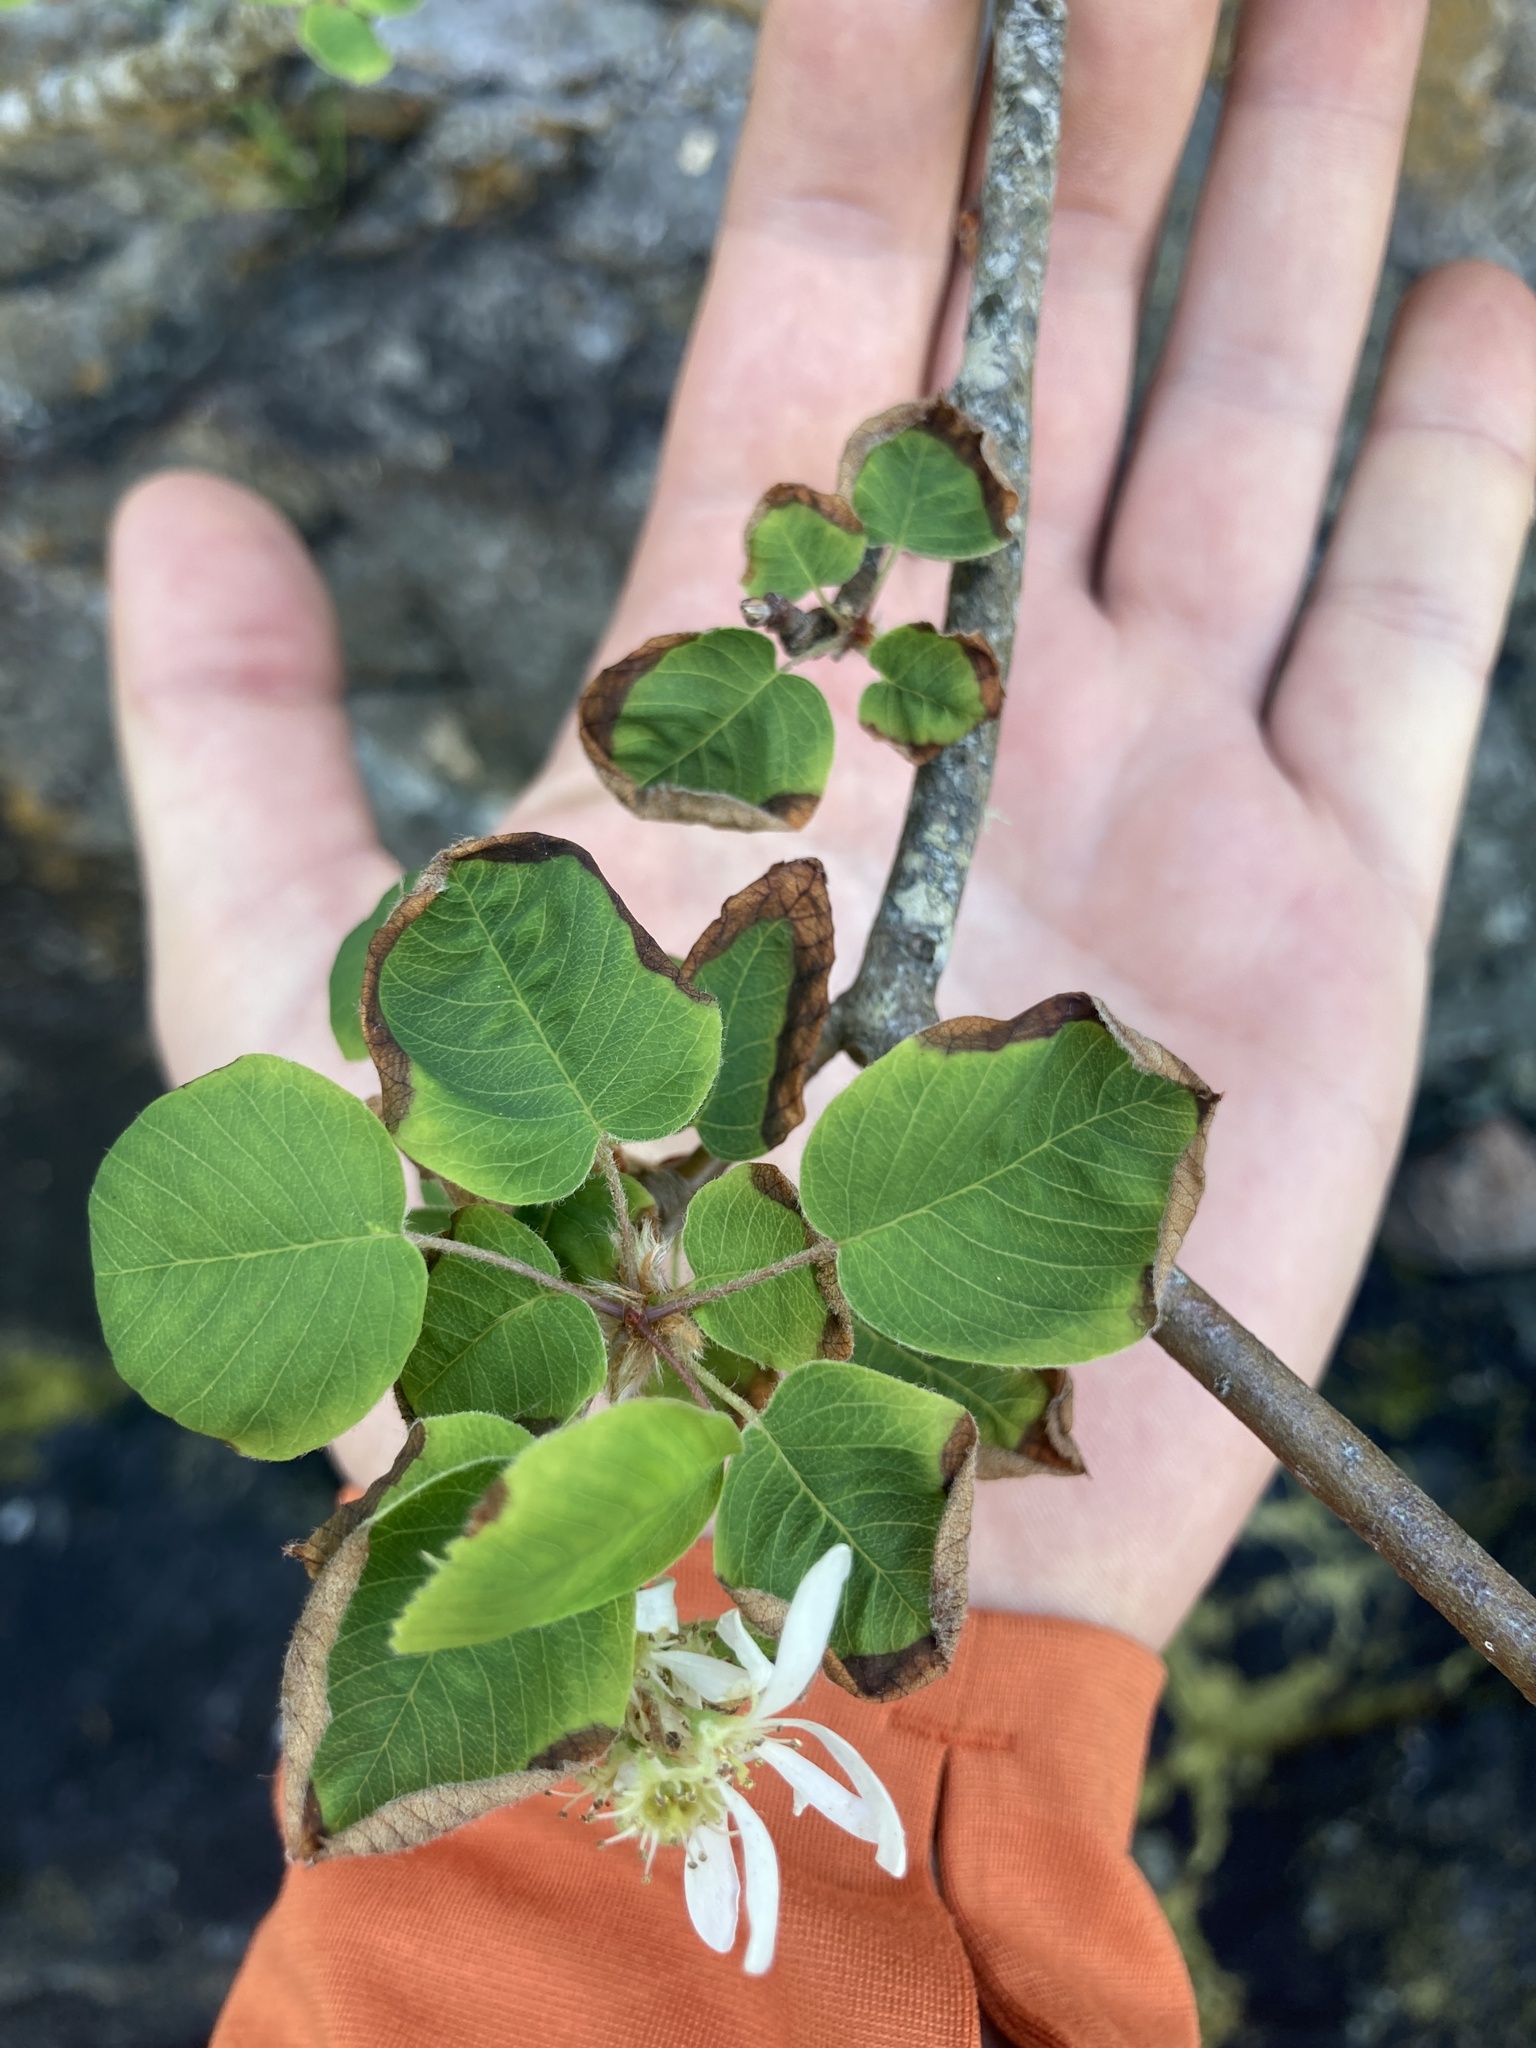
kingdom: Plantae
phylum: Tracheophyta
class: Magnoliopsida
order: Rosales
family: Rosaceae
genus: Amelanchier
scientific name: Amelanchier alnifolia
